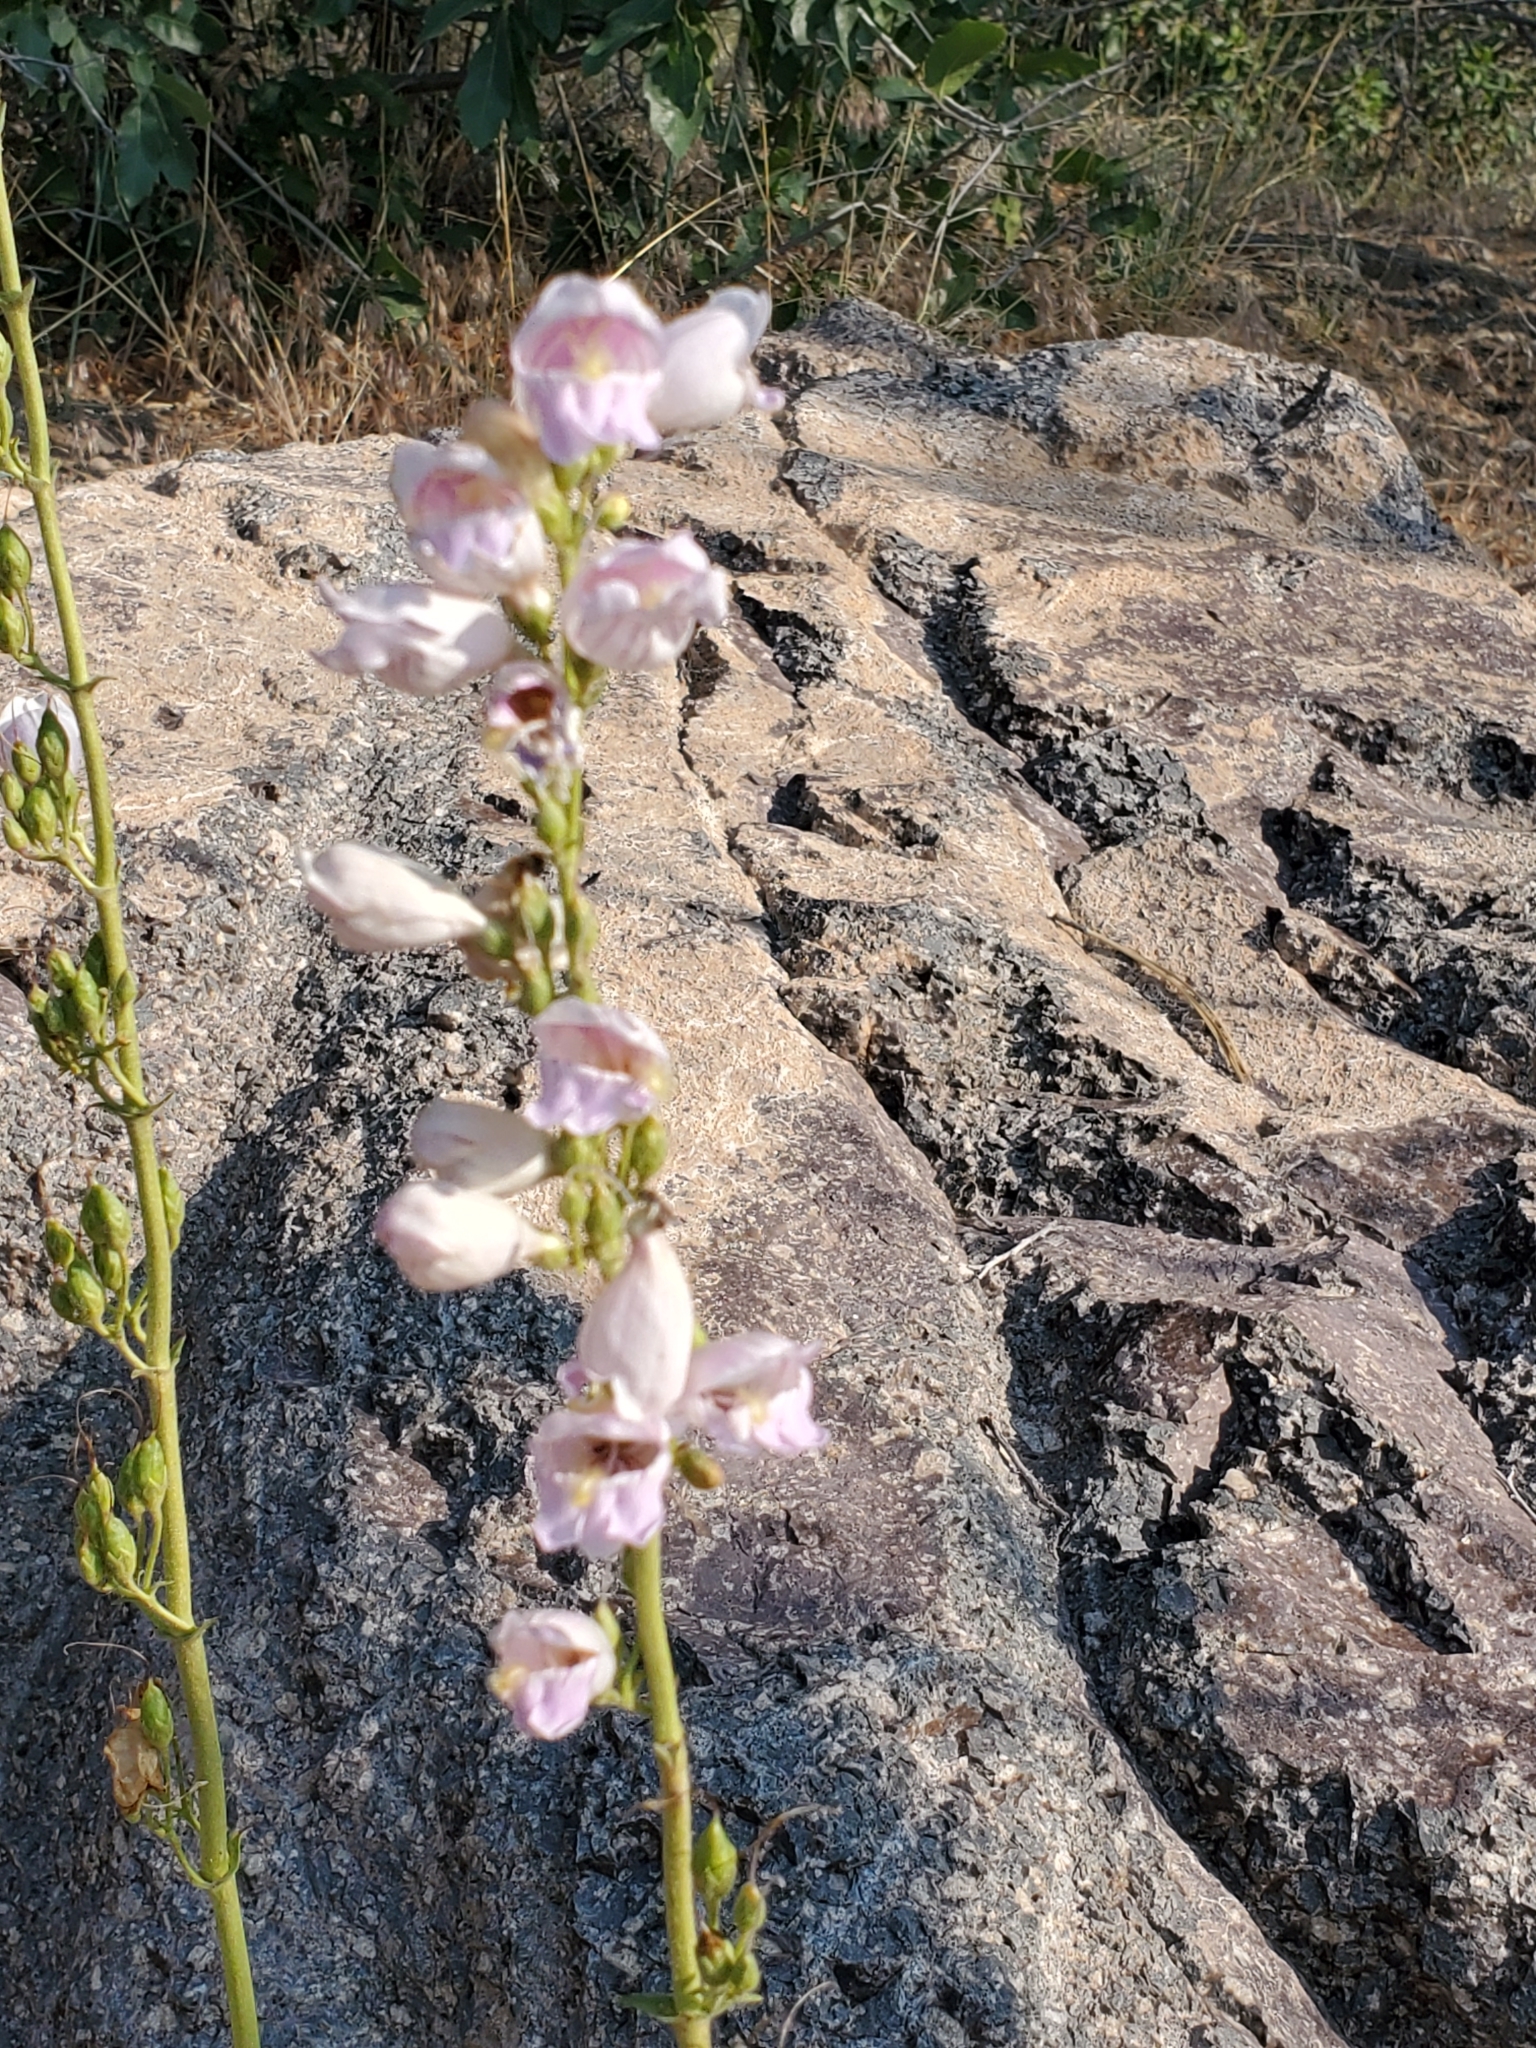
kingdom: Plantae
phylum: Tracheophyta
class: Magnoliopsida
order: Lamiales
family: Plantaginaceae
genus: Penstemon
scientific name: Penstemon palmeri
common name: Palmer penstemon
